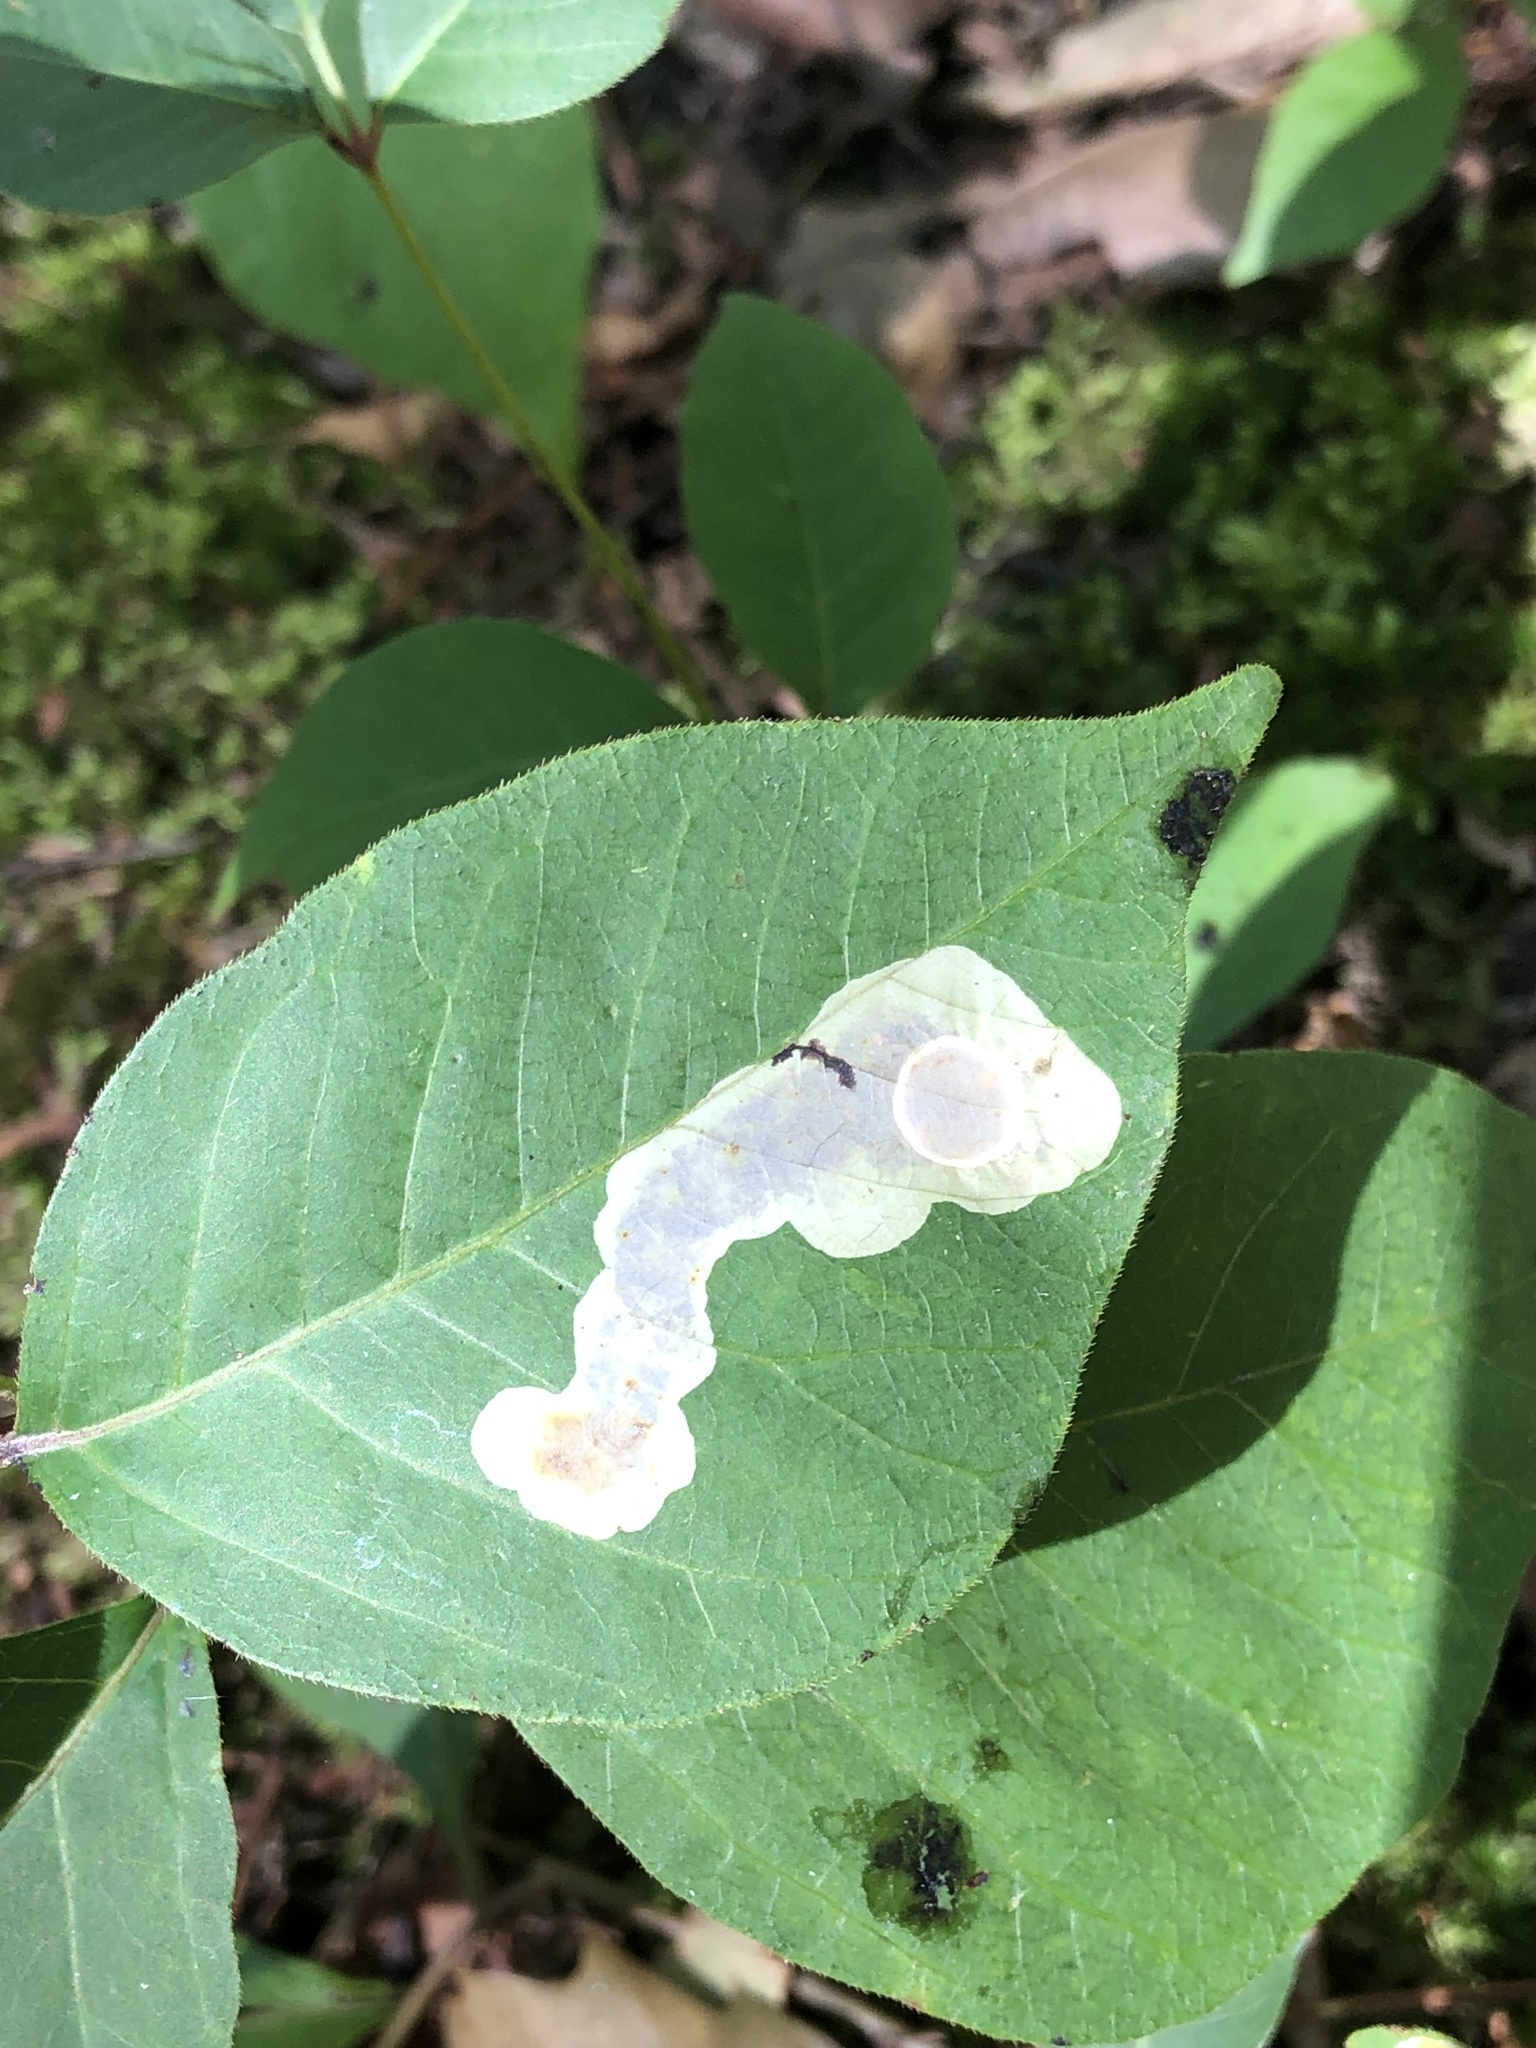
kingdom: Animalia
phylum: Arthropoda
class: Insecta
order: Lepidoptera
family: Gracillariidae
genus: Cameraria
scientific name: Cameraria guttifinitella
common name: Poison ivy leaf-miner moth
